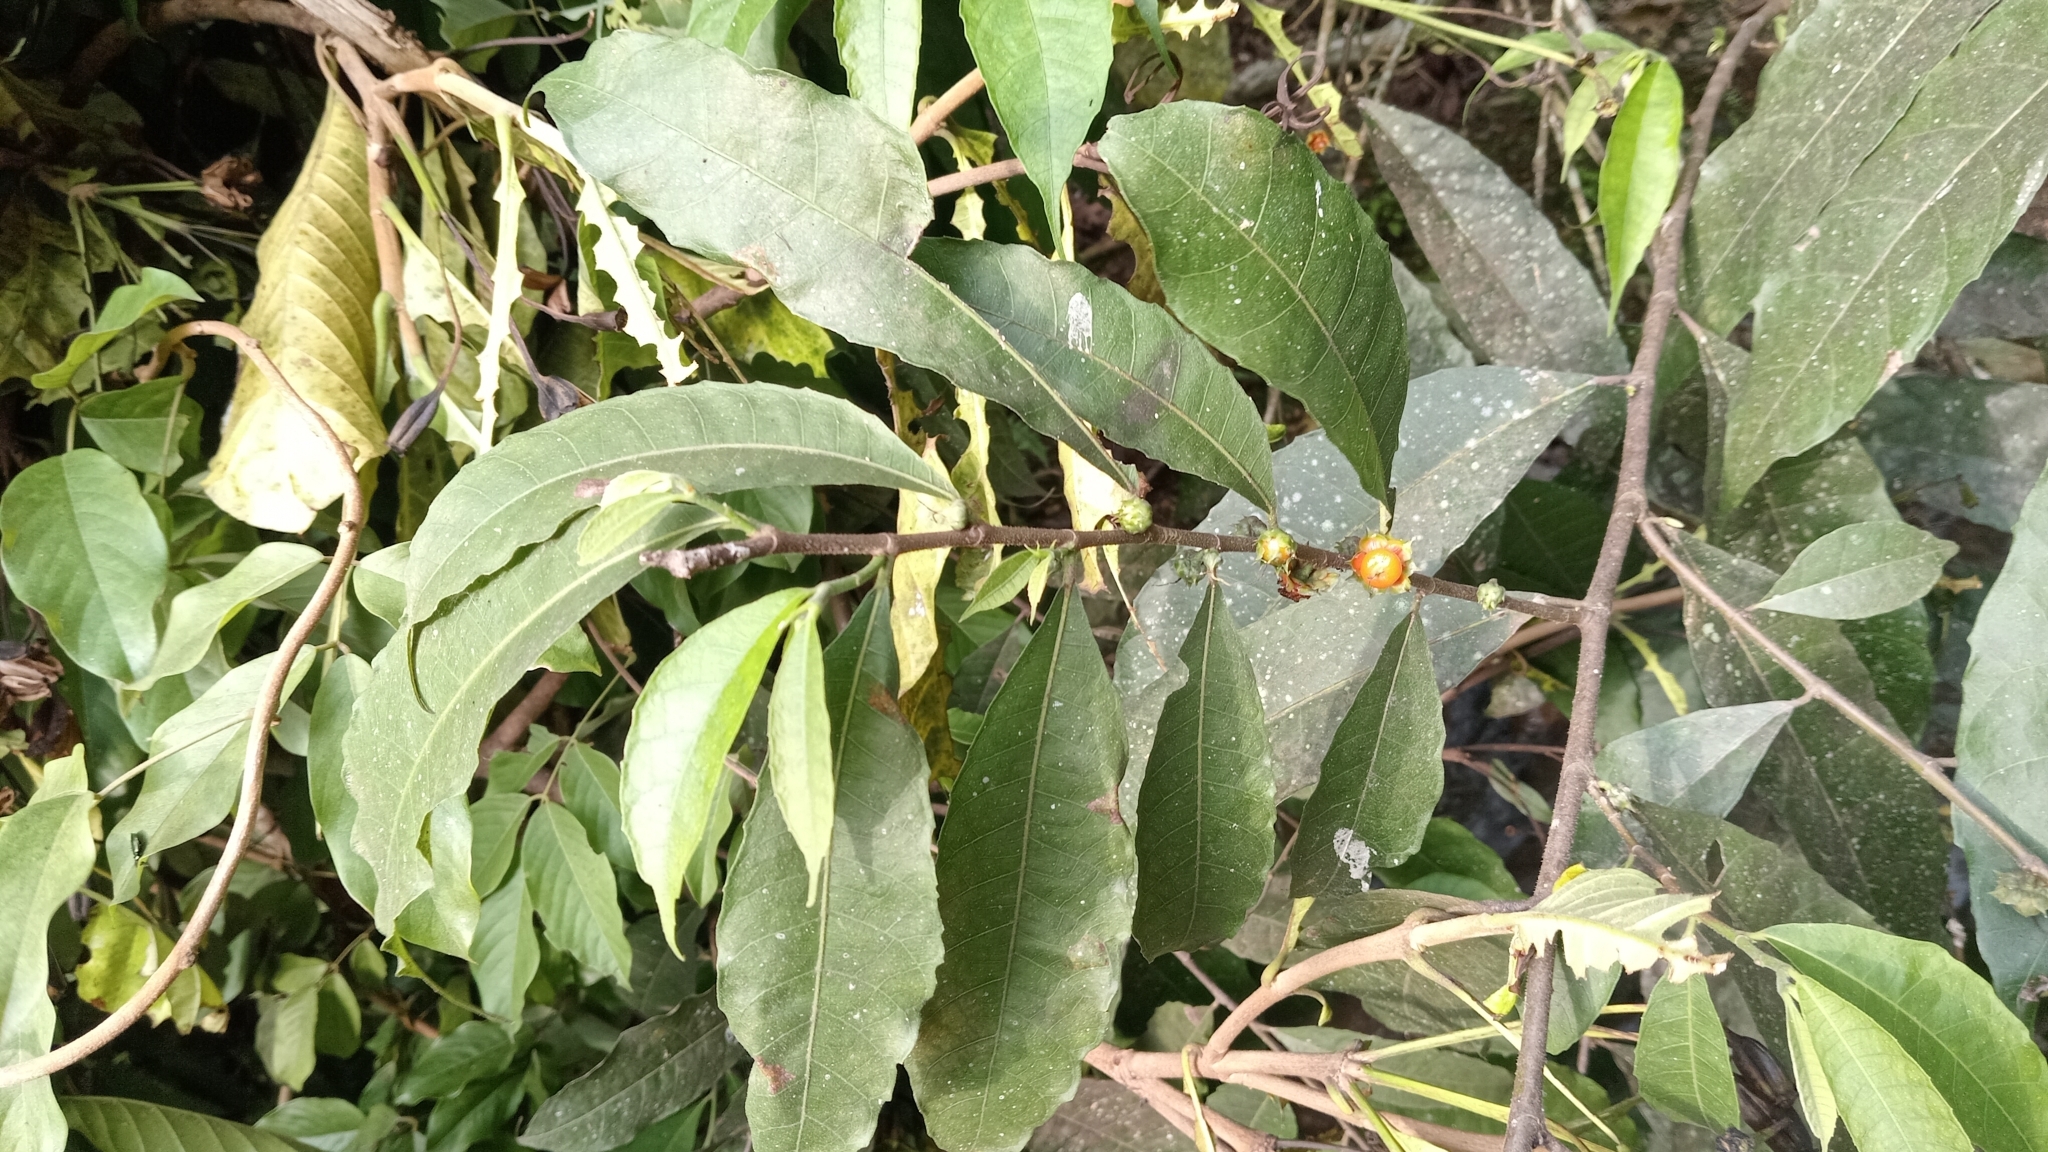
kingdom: Plantae
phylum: Tracheophyta
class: Magnoliopsida
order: Rosales
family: Moraceae
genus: Olmedia
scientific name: Olmedia aspera
